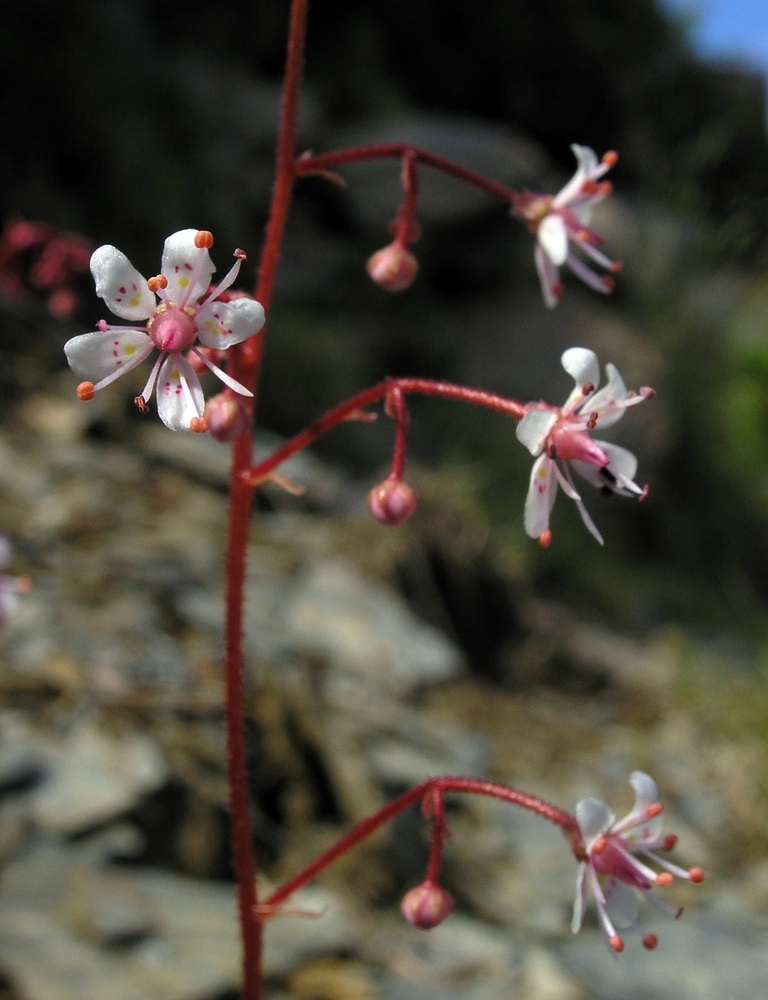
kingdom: Plantae
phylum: Tracheophyta
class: Magnoliopsida
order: Saxifragales
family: Saxifragaceae
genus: Saxifraga
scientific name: Saxifraga umbrosa
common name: Pyrenean saxifrage
